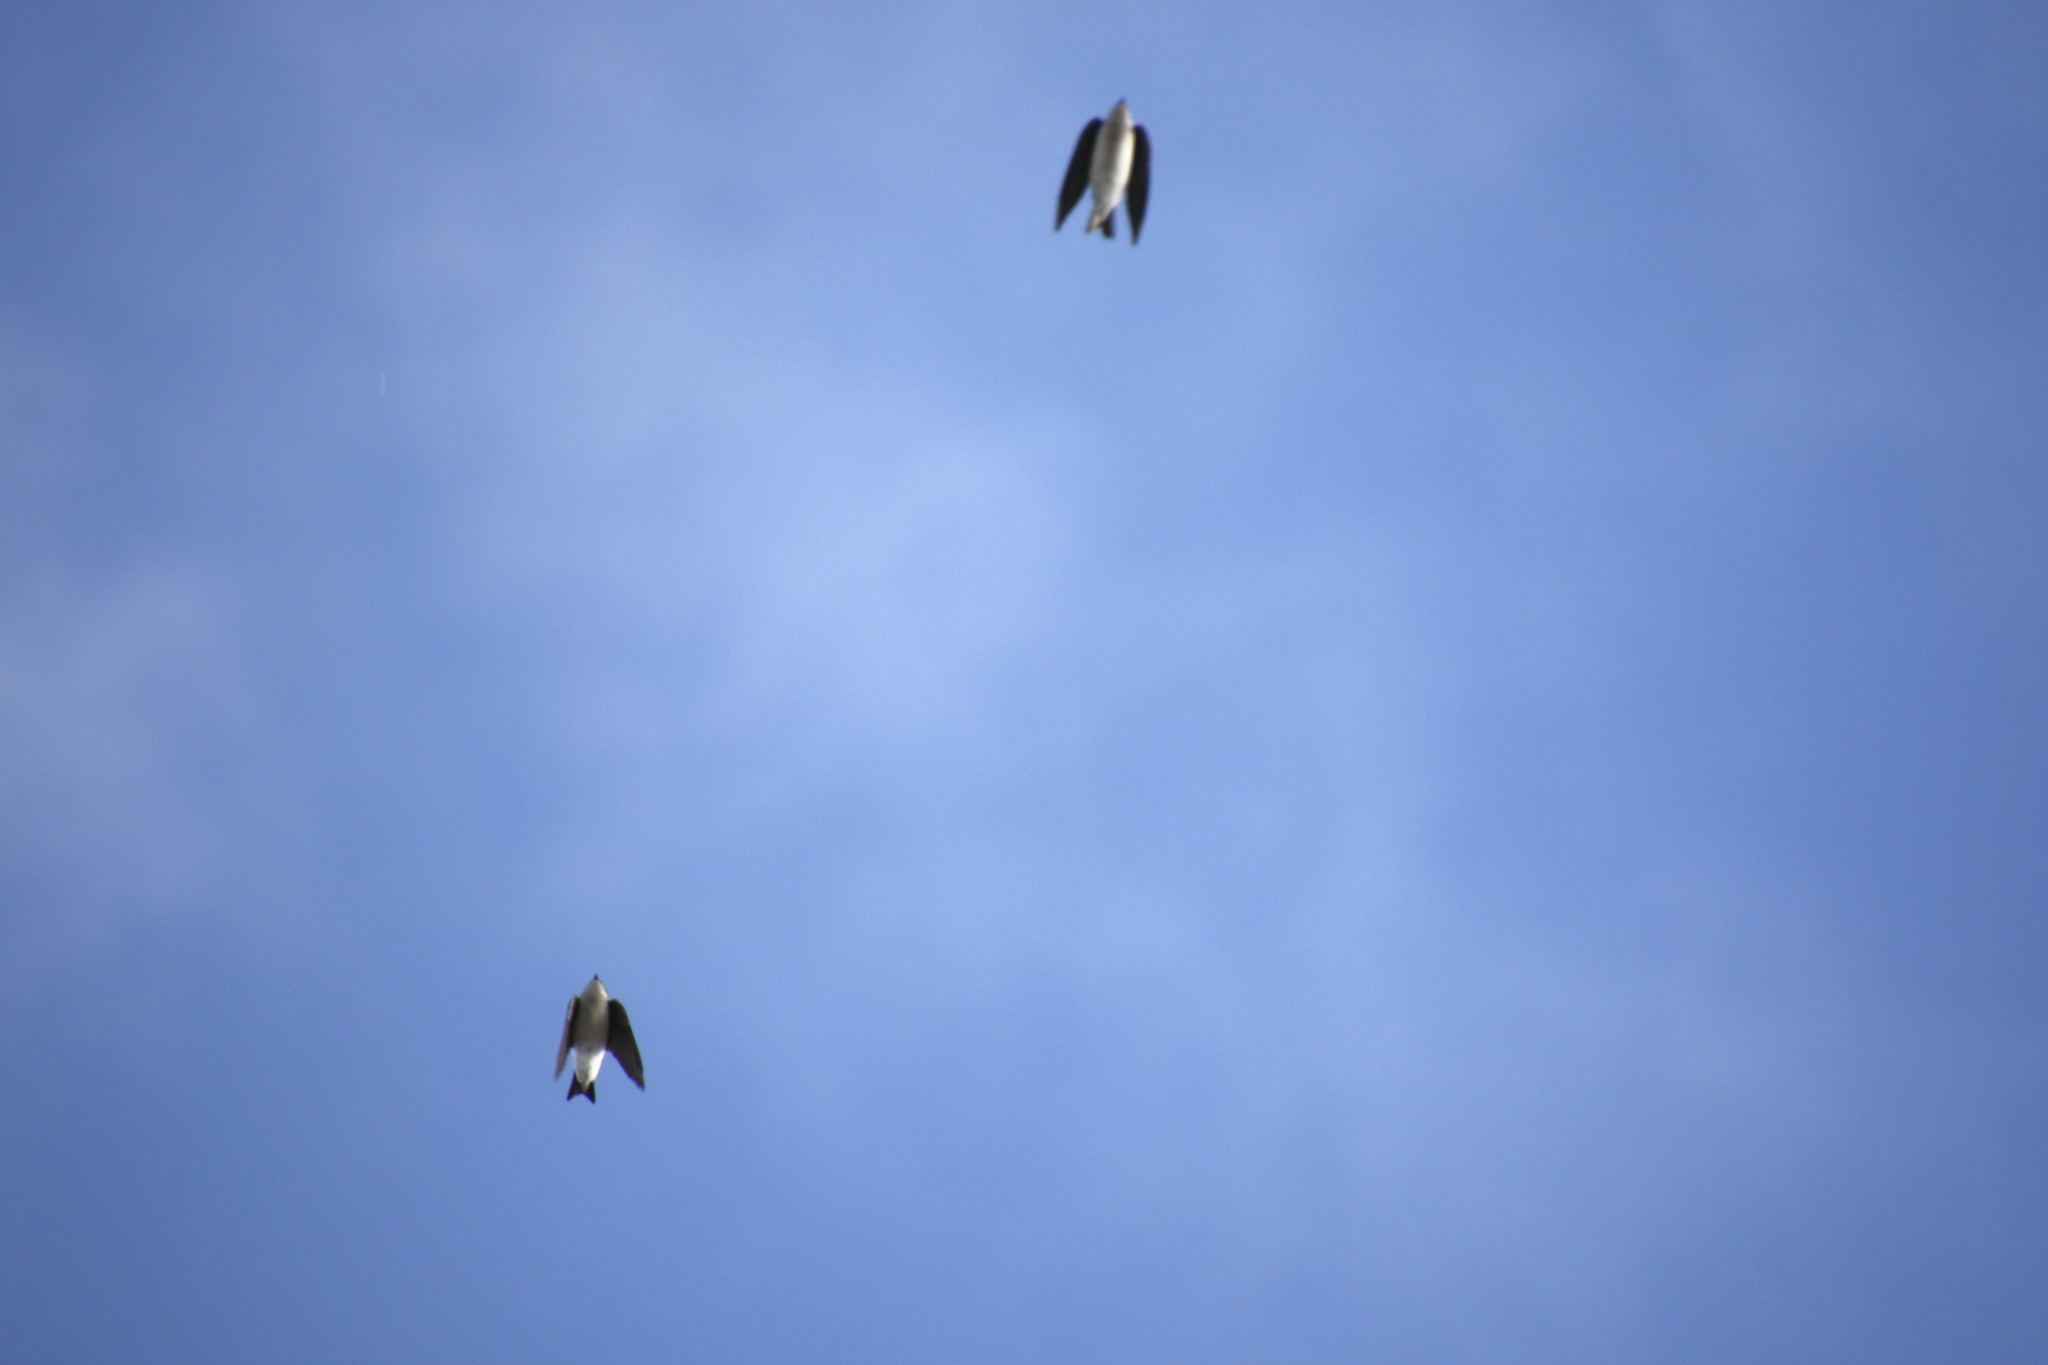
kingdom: Animalia
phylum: Chordata
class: Aves
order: Passeriformes
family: Hirundinidae
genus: Tachycineta
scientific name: Tachycineta bicolor
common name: Tree swallow
